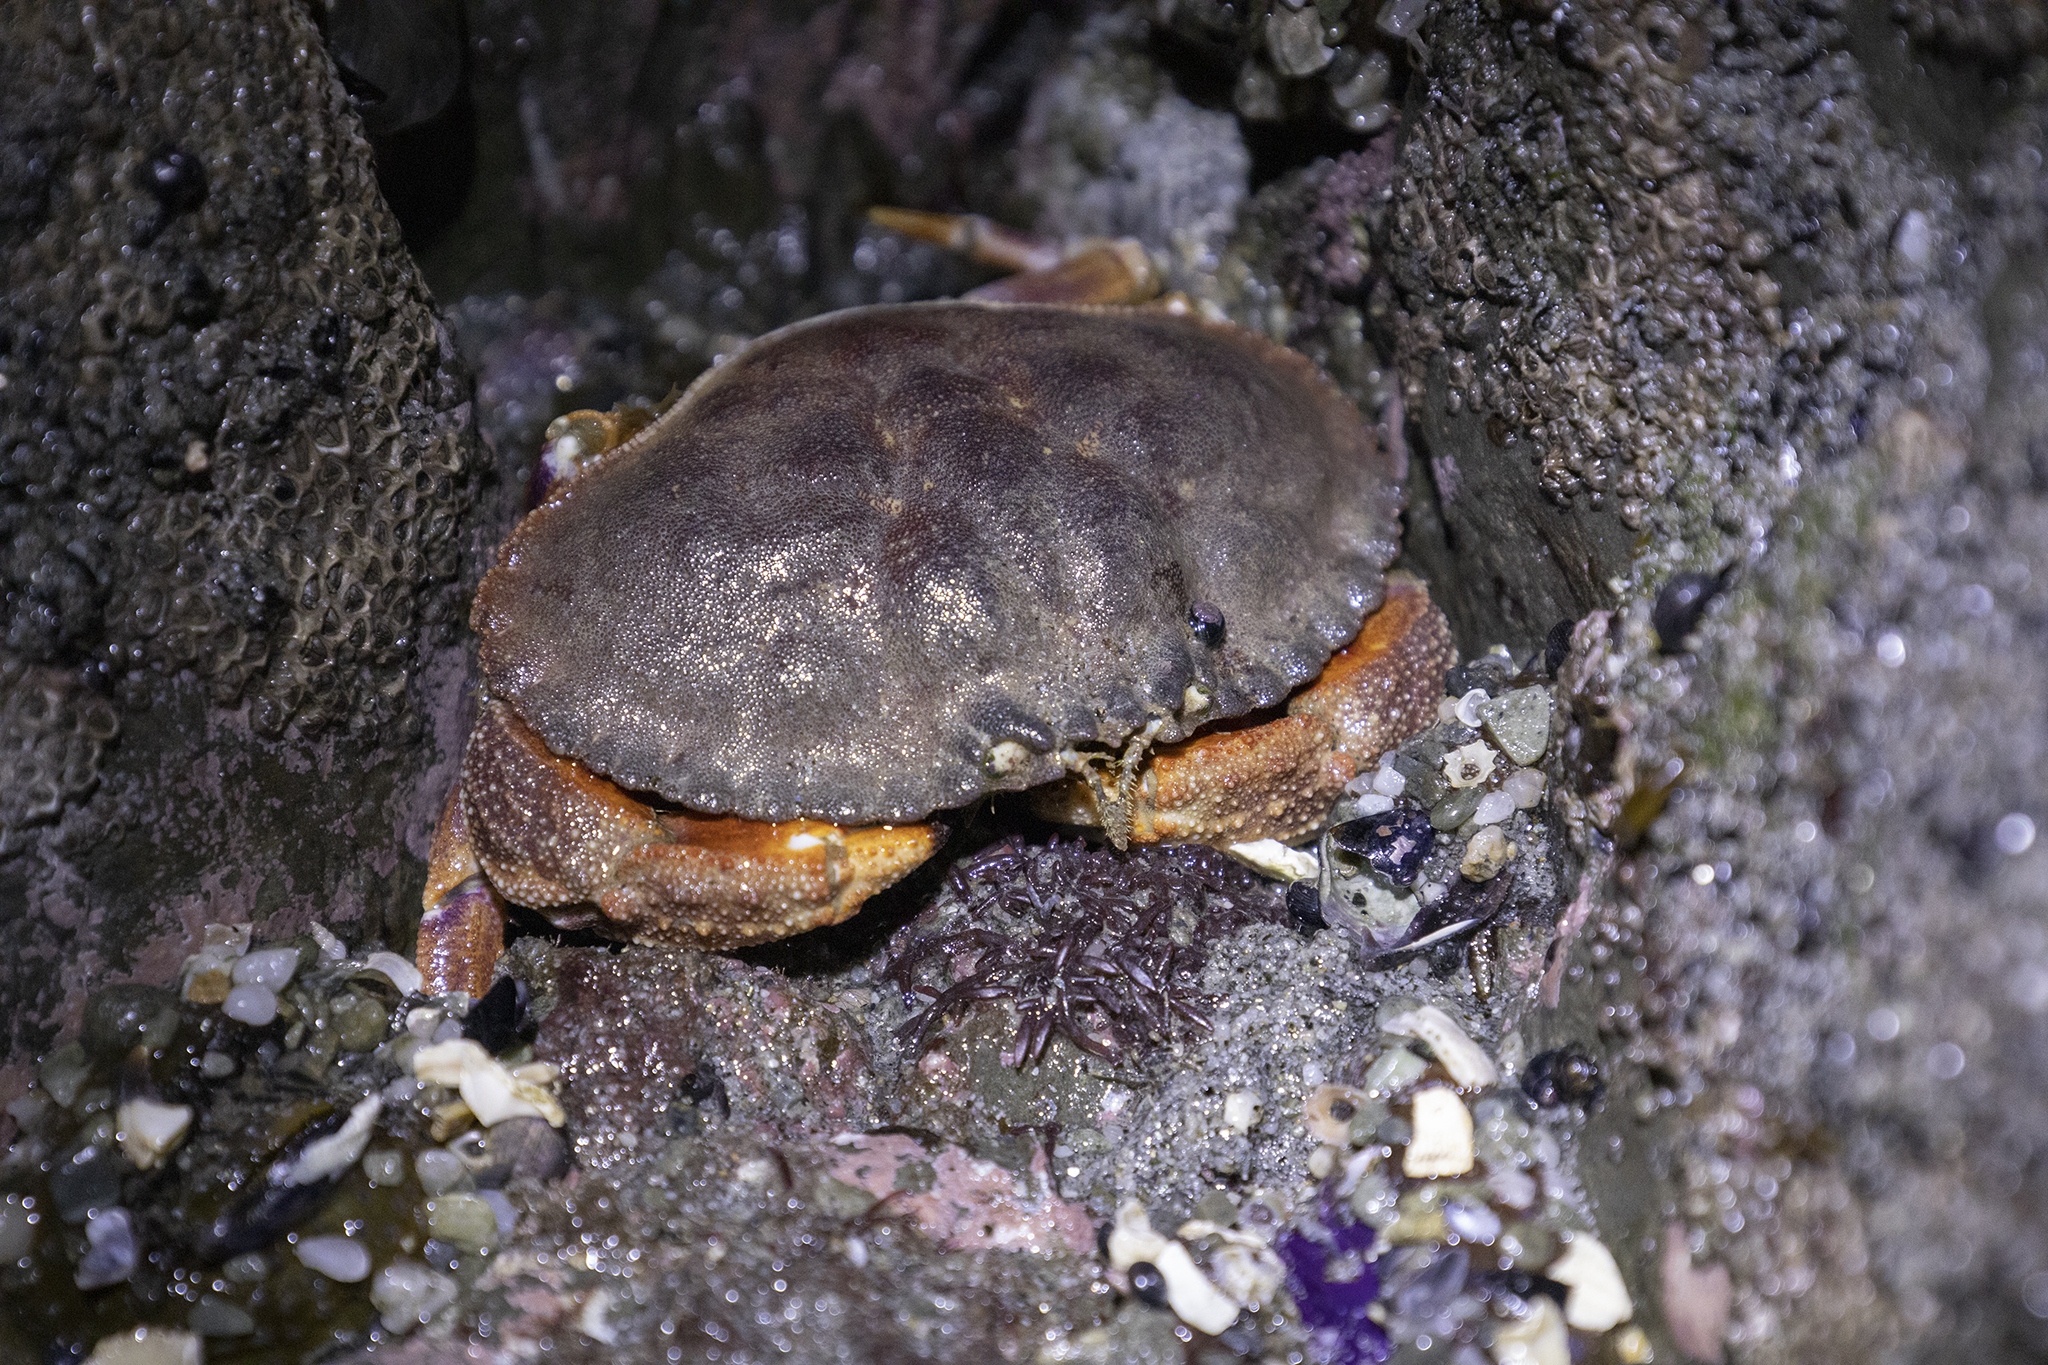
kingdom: Animalia
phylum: Arthropoda
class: Malacostraca
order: Decapoda
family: Cancridae
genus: Metacarcinus
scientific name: Metacarcinus novaezelandiae
